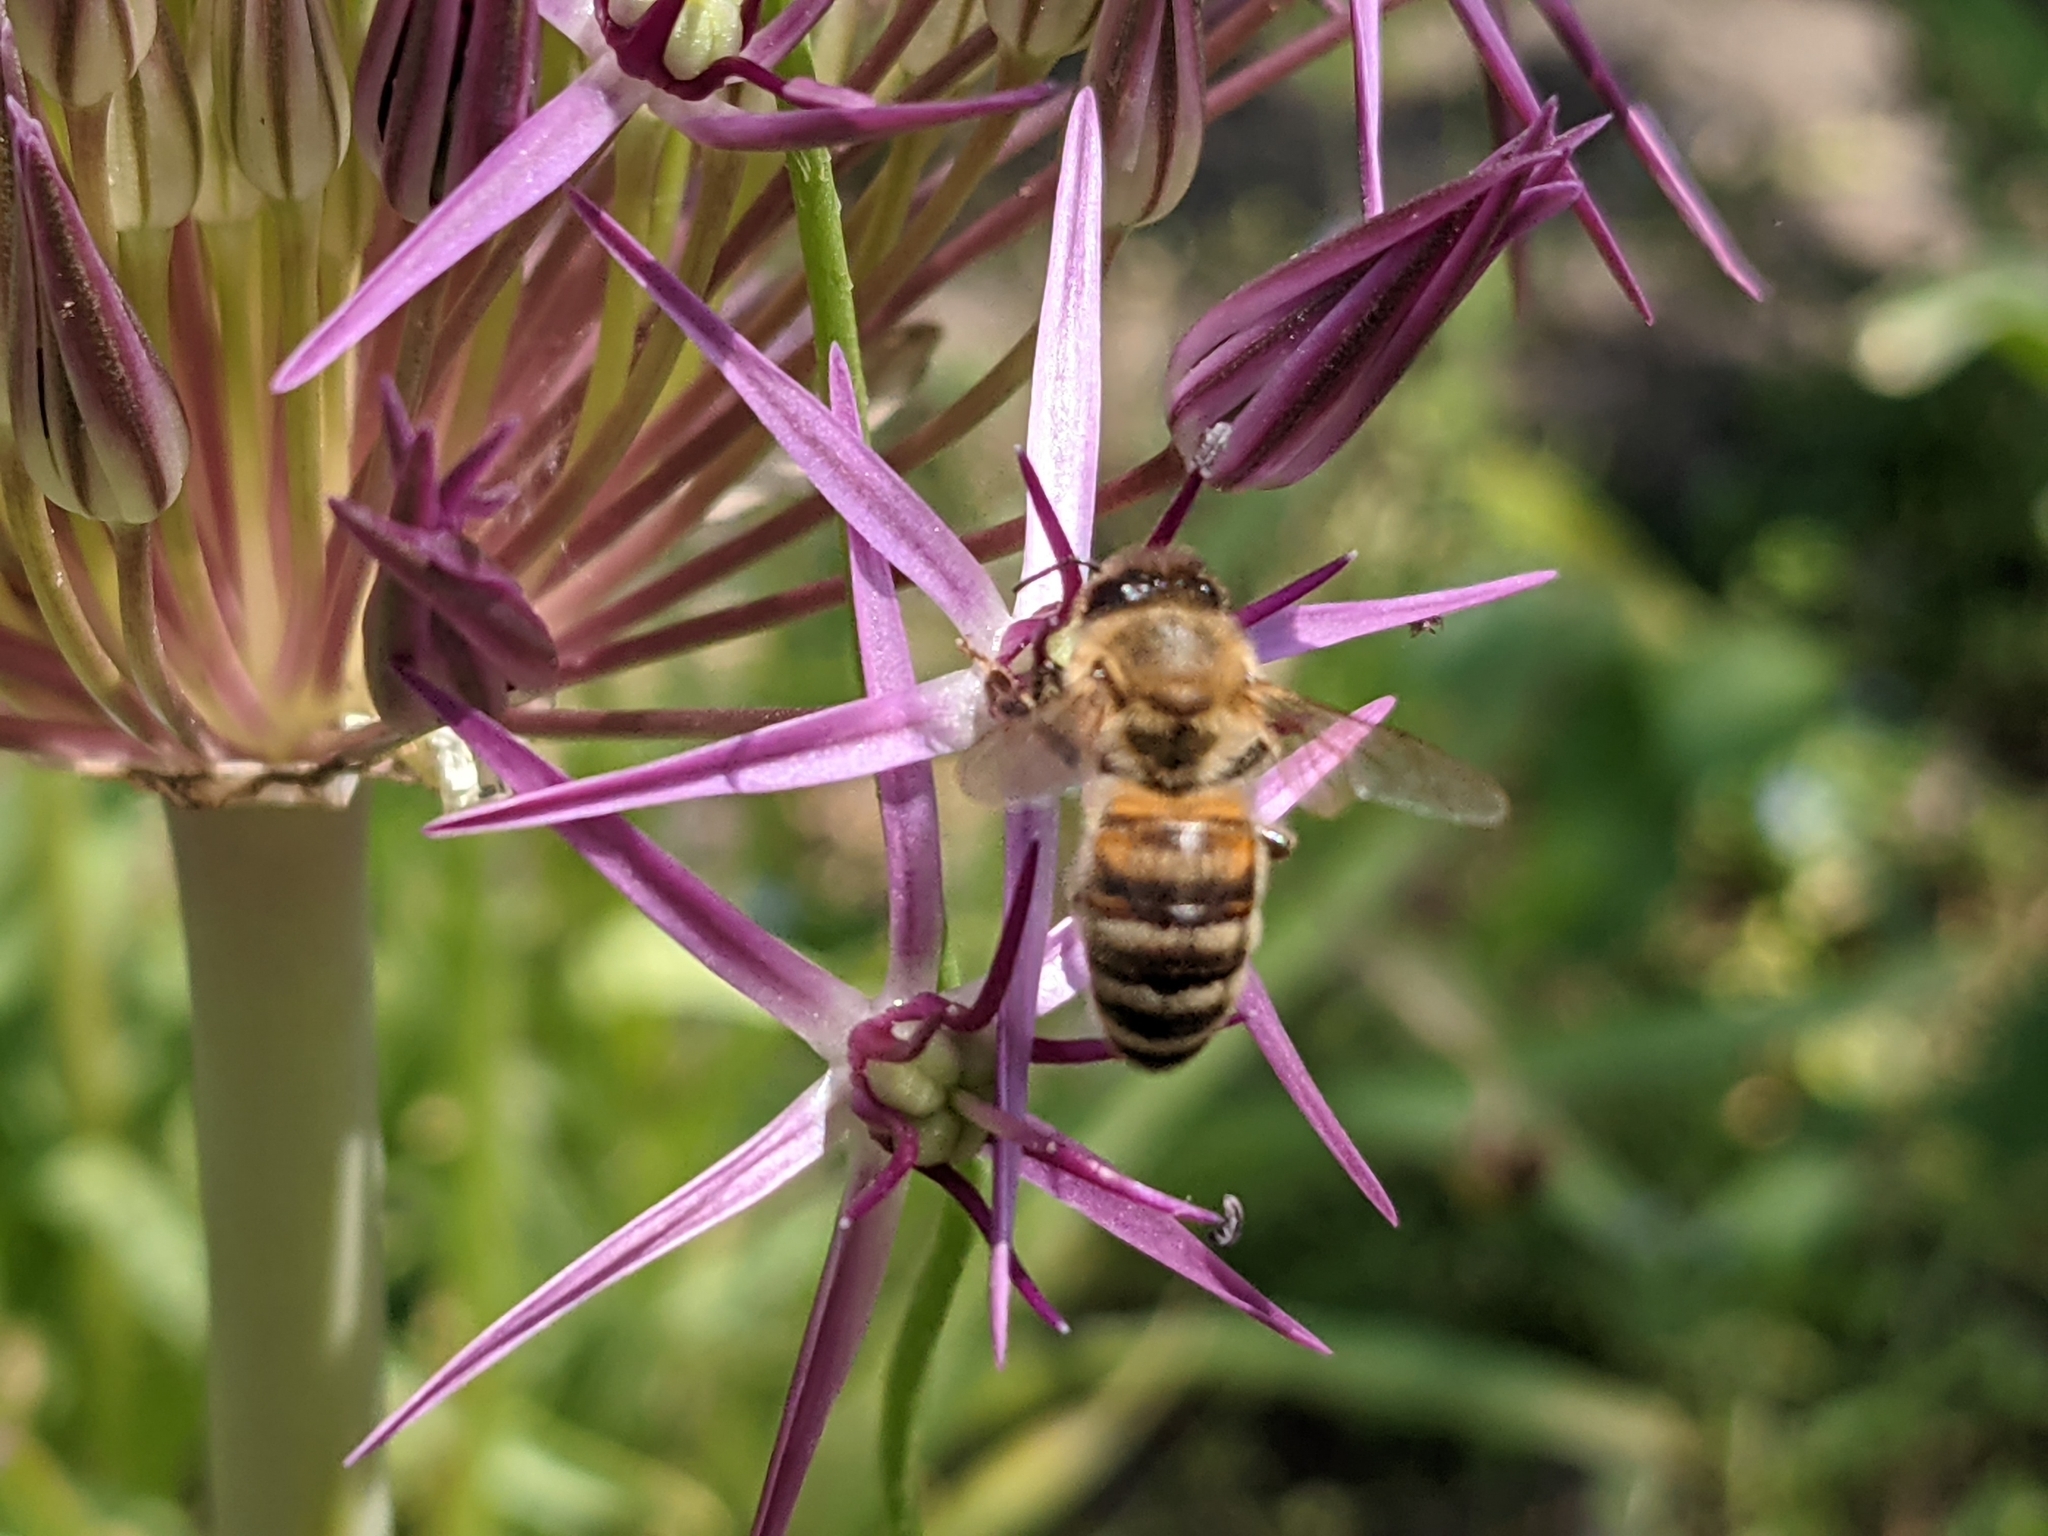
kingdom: Animalia
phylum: Arthropoda
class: Insecta
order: Hymenoptera
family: Apidae
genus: Apis
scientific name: Apis mellifera
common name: Honey bee
